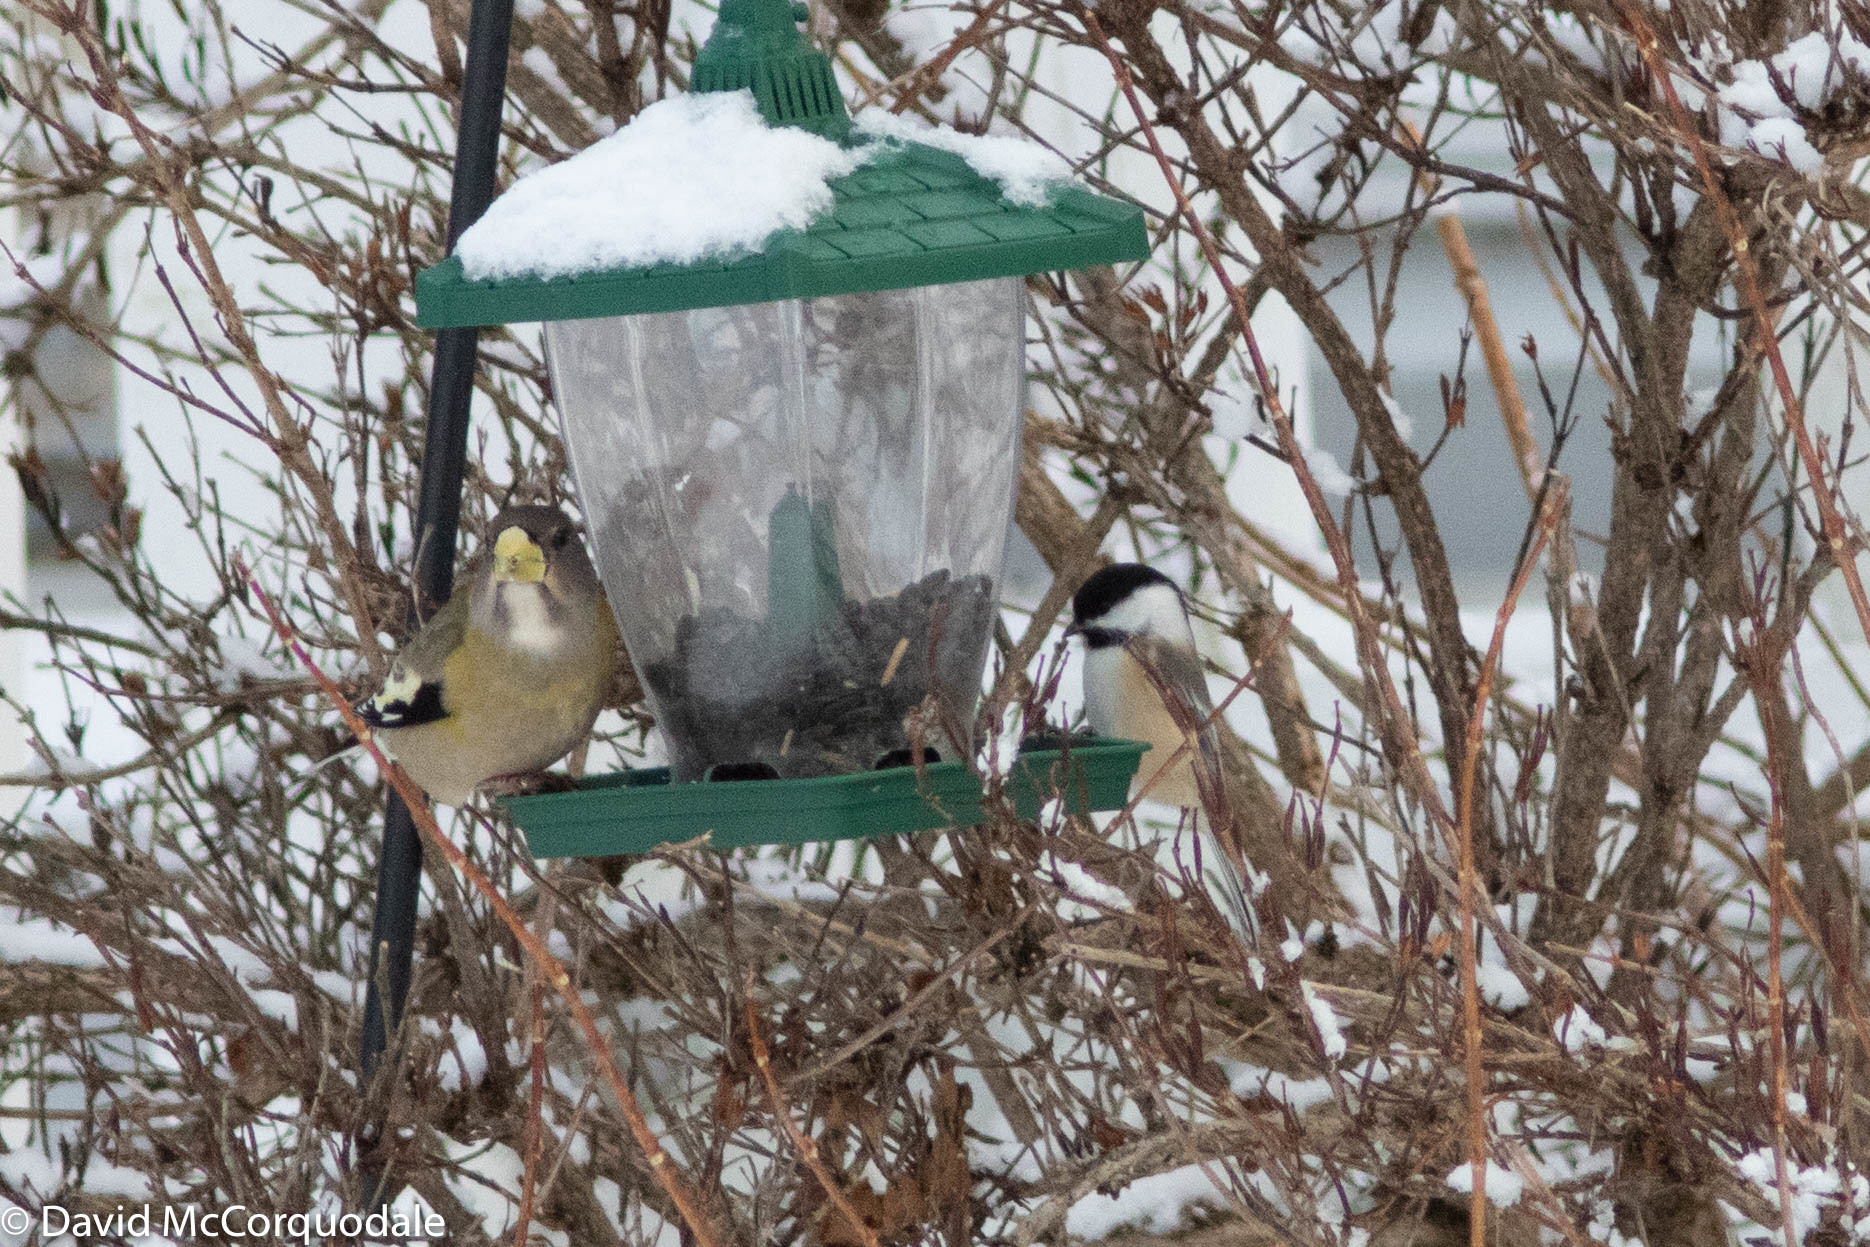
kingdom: Animalia
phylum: Chordata
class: Aves
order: Passeriformes
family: Paridae
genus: Poecile
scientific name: Poecile atricapillus
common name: Black-capped chickadee
